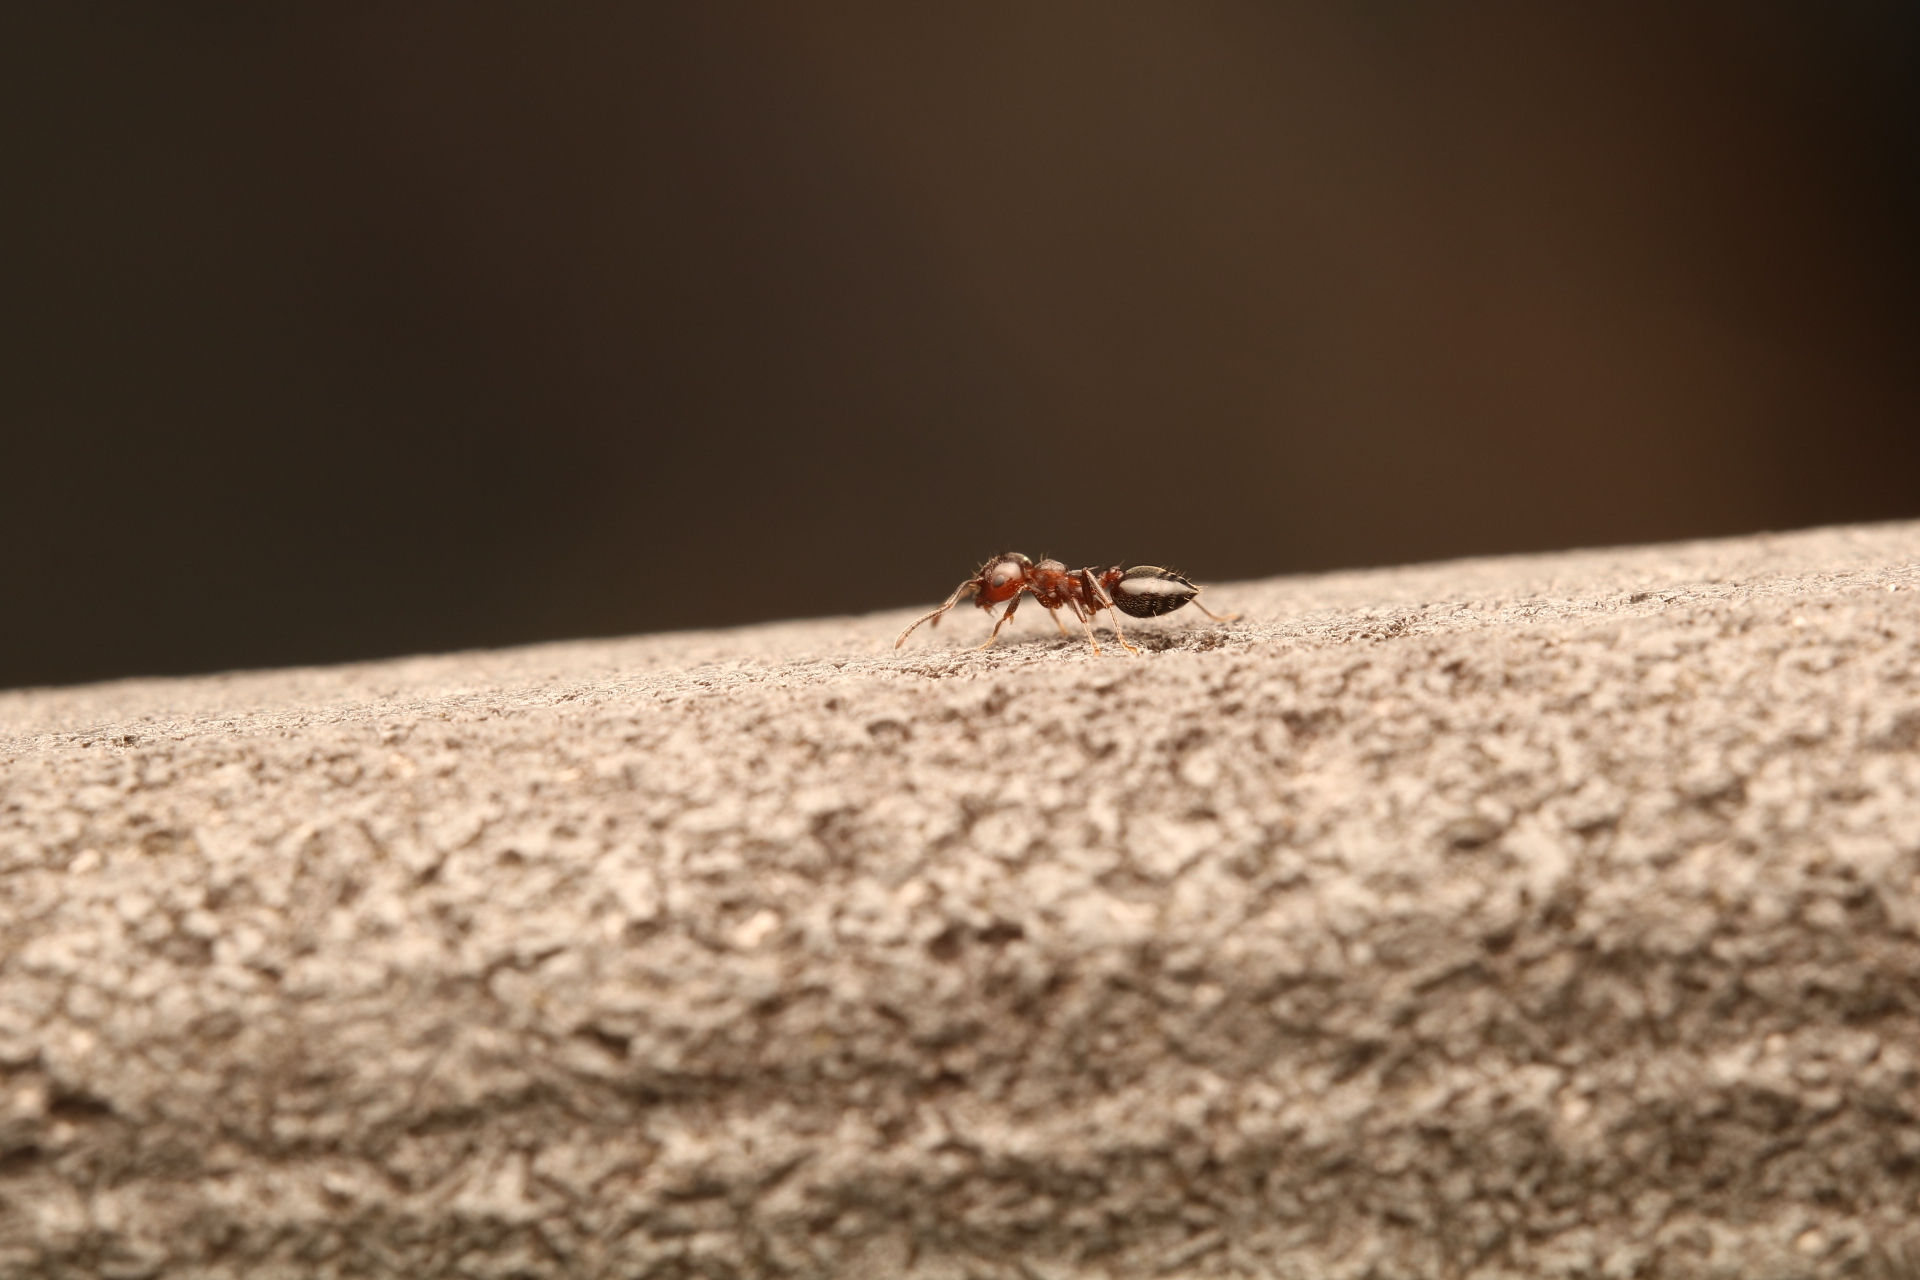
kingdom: Animalia
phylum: Arthropoda
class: Insecta
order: Hymenoptera
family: Formicidae
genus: Crematogaster
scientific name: Crematogaster cerasi
